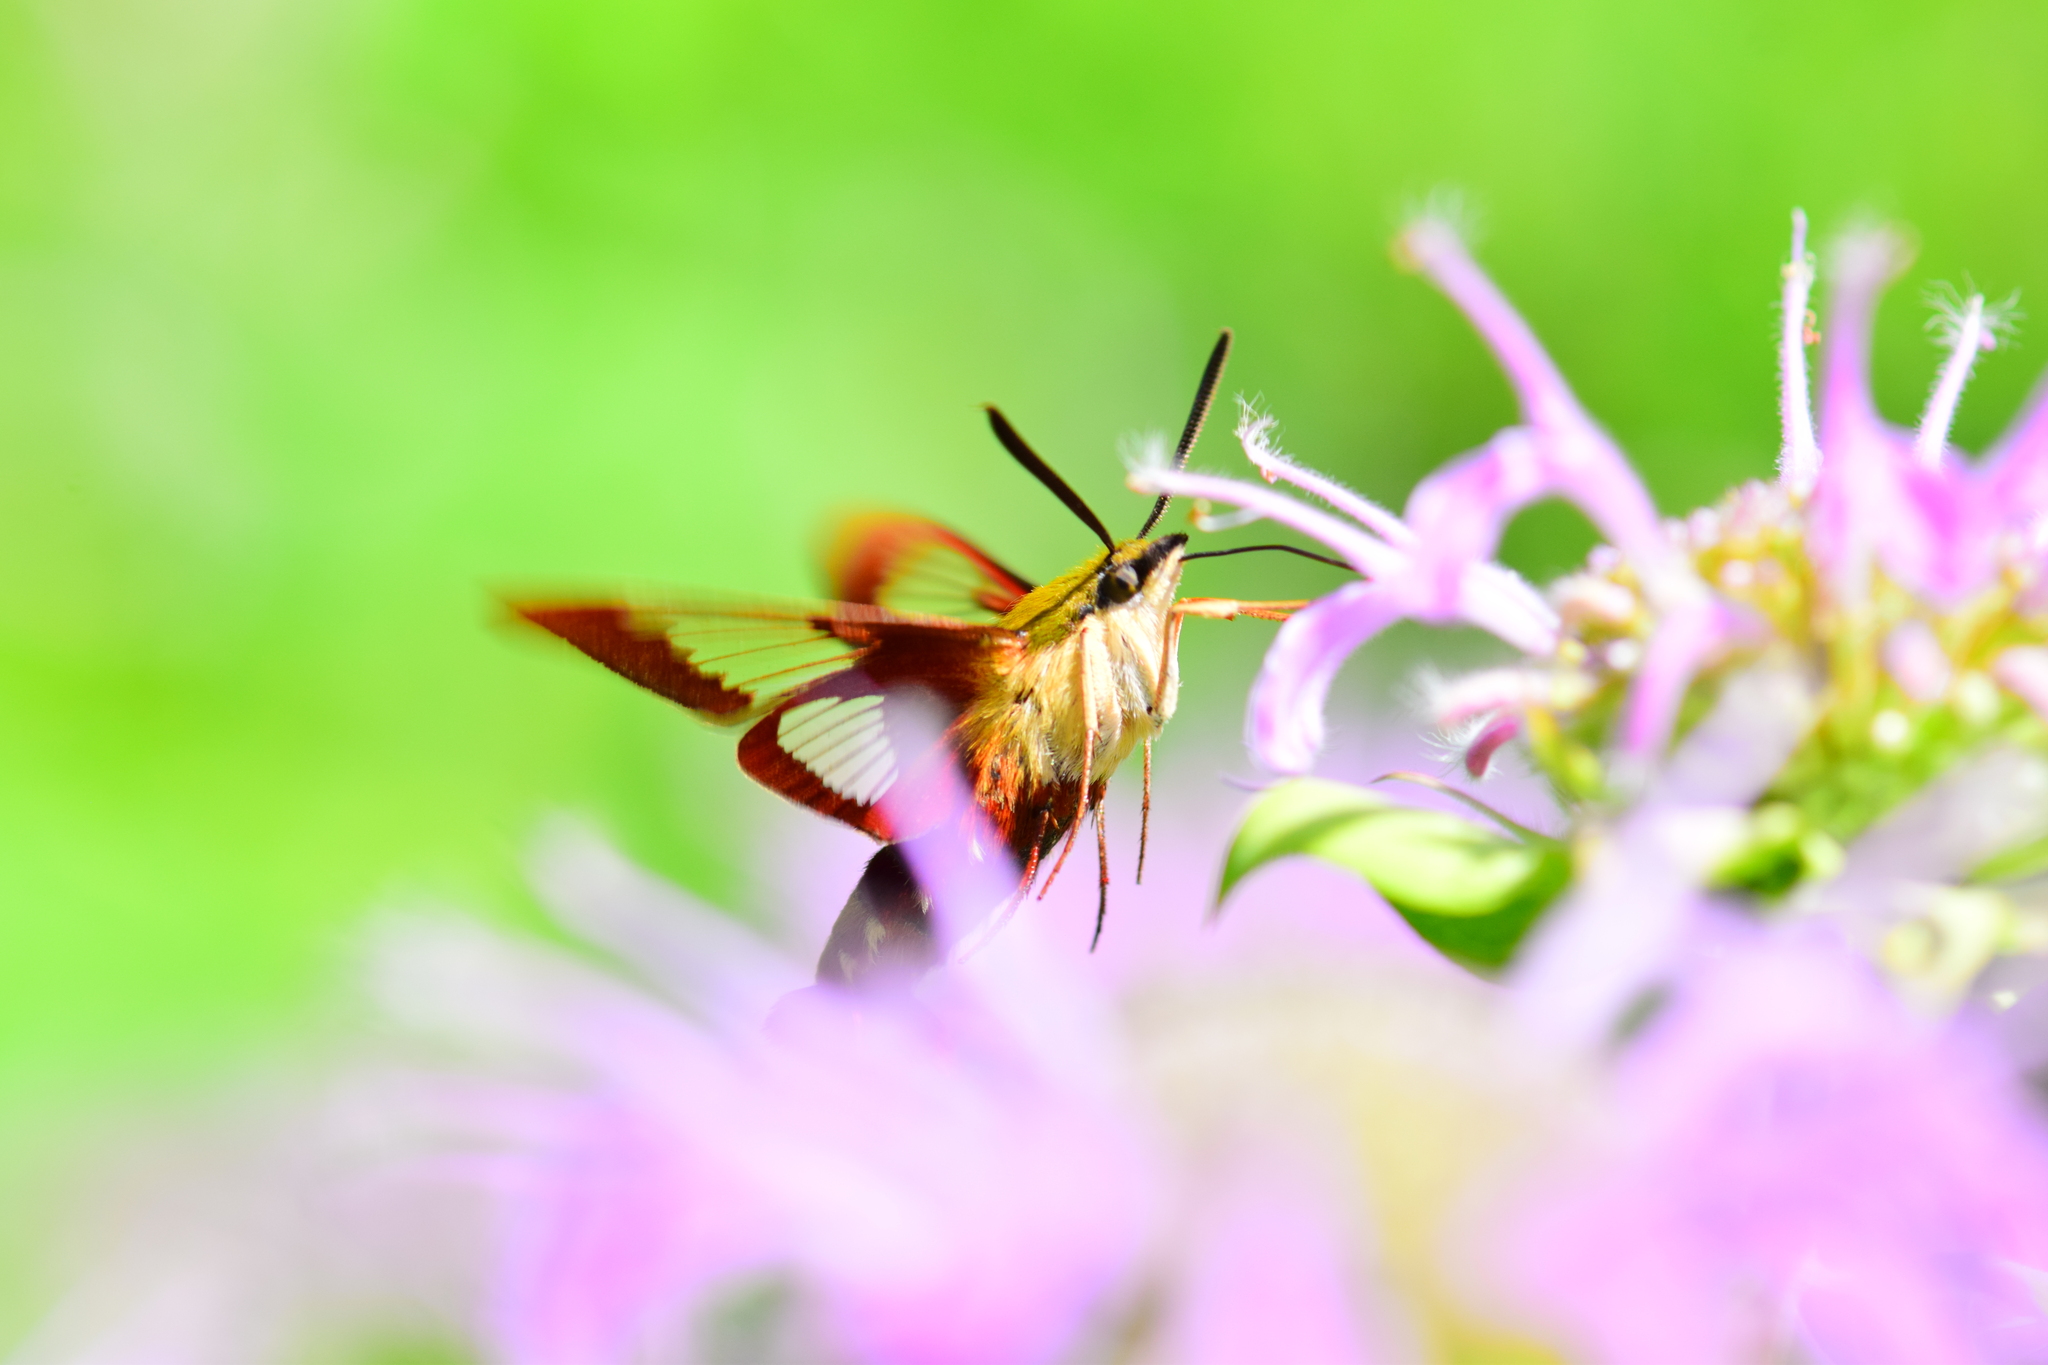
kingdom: Animalia
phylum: Arthropoda
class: Insecta
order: Lepidoptera
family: Sphingidae
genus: Hemaris
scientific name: Hemaris thysbe
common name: Common clear-wing
